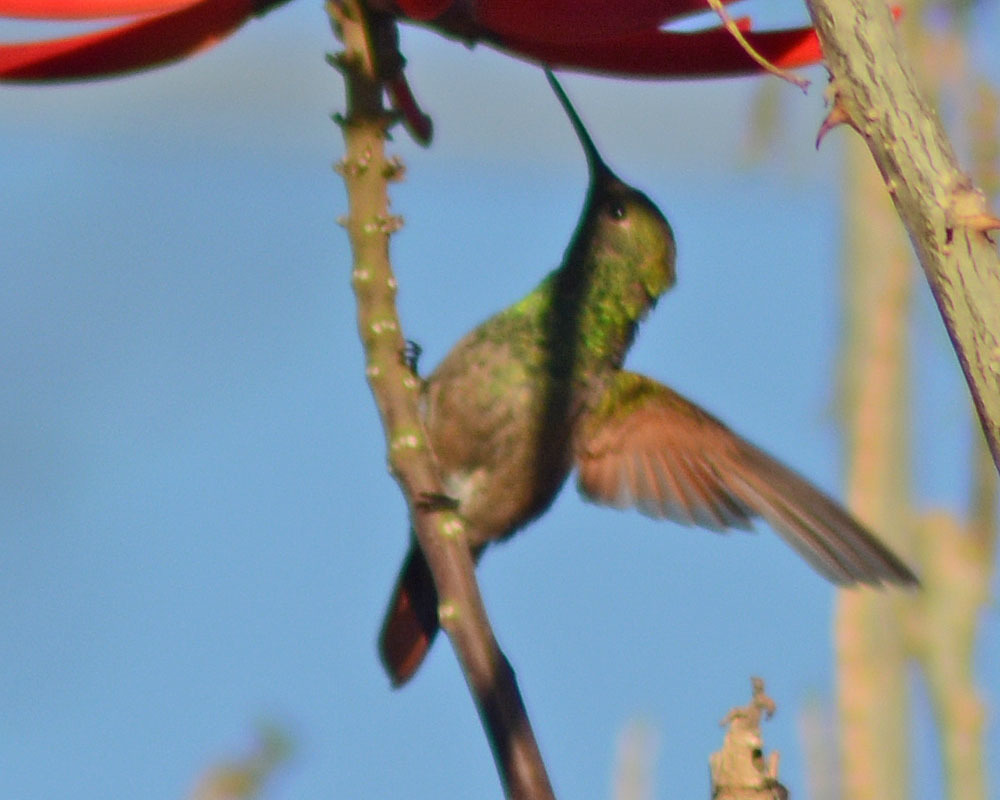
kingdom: Animalia
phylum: Chordata
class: Aves
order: Apodiformes
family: Trochilidae
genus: Saucerottia
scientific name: Saucerottia beryllina
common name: Berylline hummingbird
